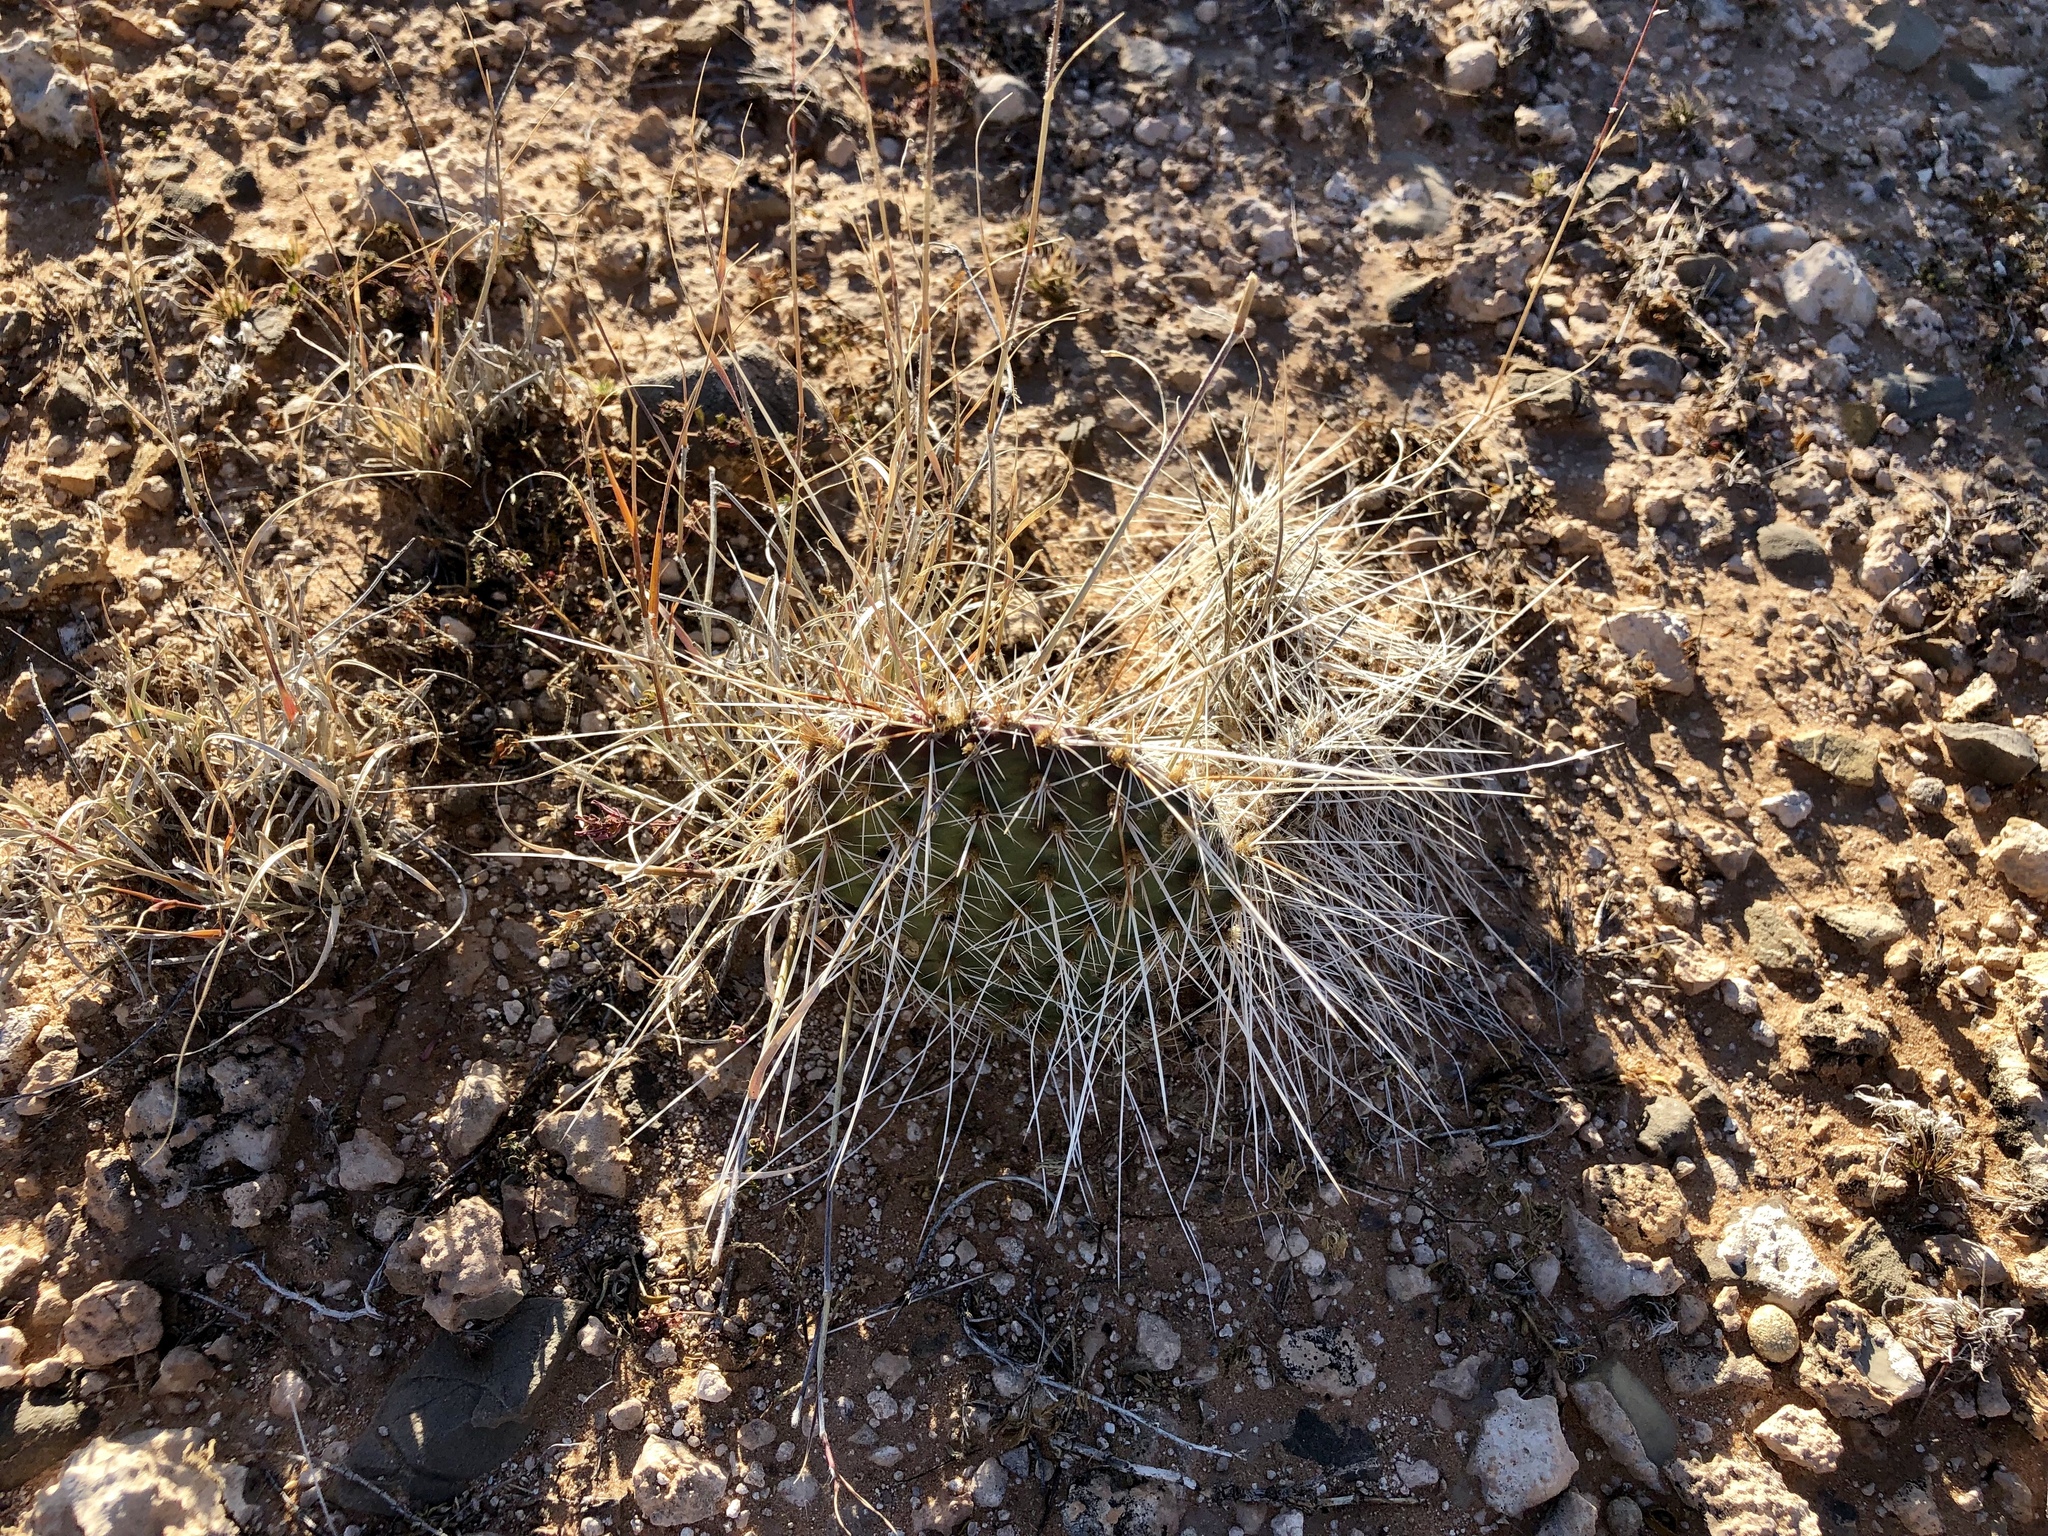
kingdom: Plantae
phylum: Tracheophyta
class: Magnoliopsida
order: Caryophyllales
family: Cactaceae
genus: Opuntia
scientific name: Opuntia polyacantha
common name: Plains prickly-pear
